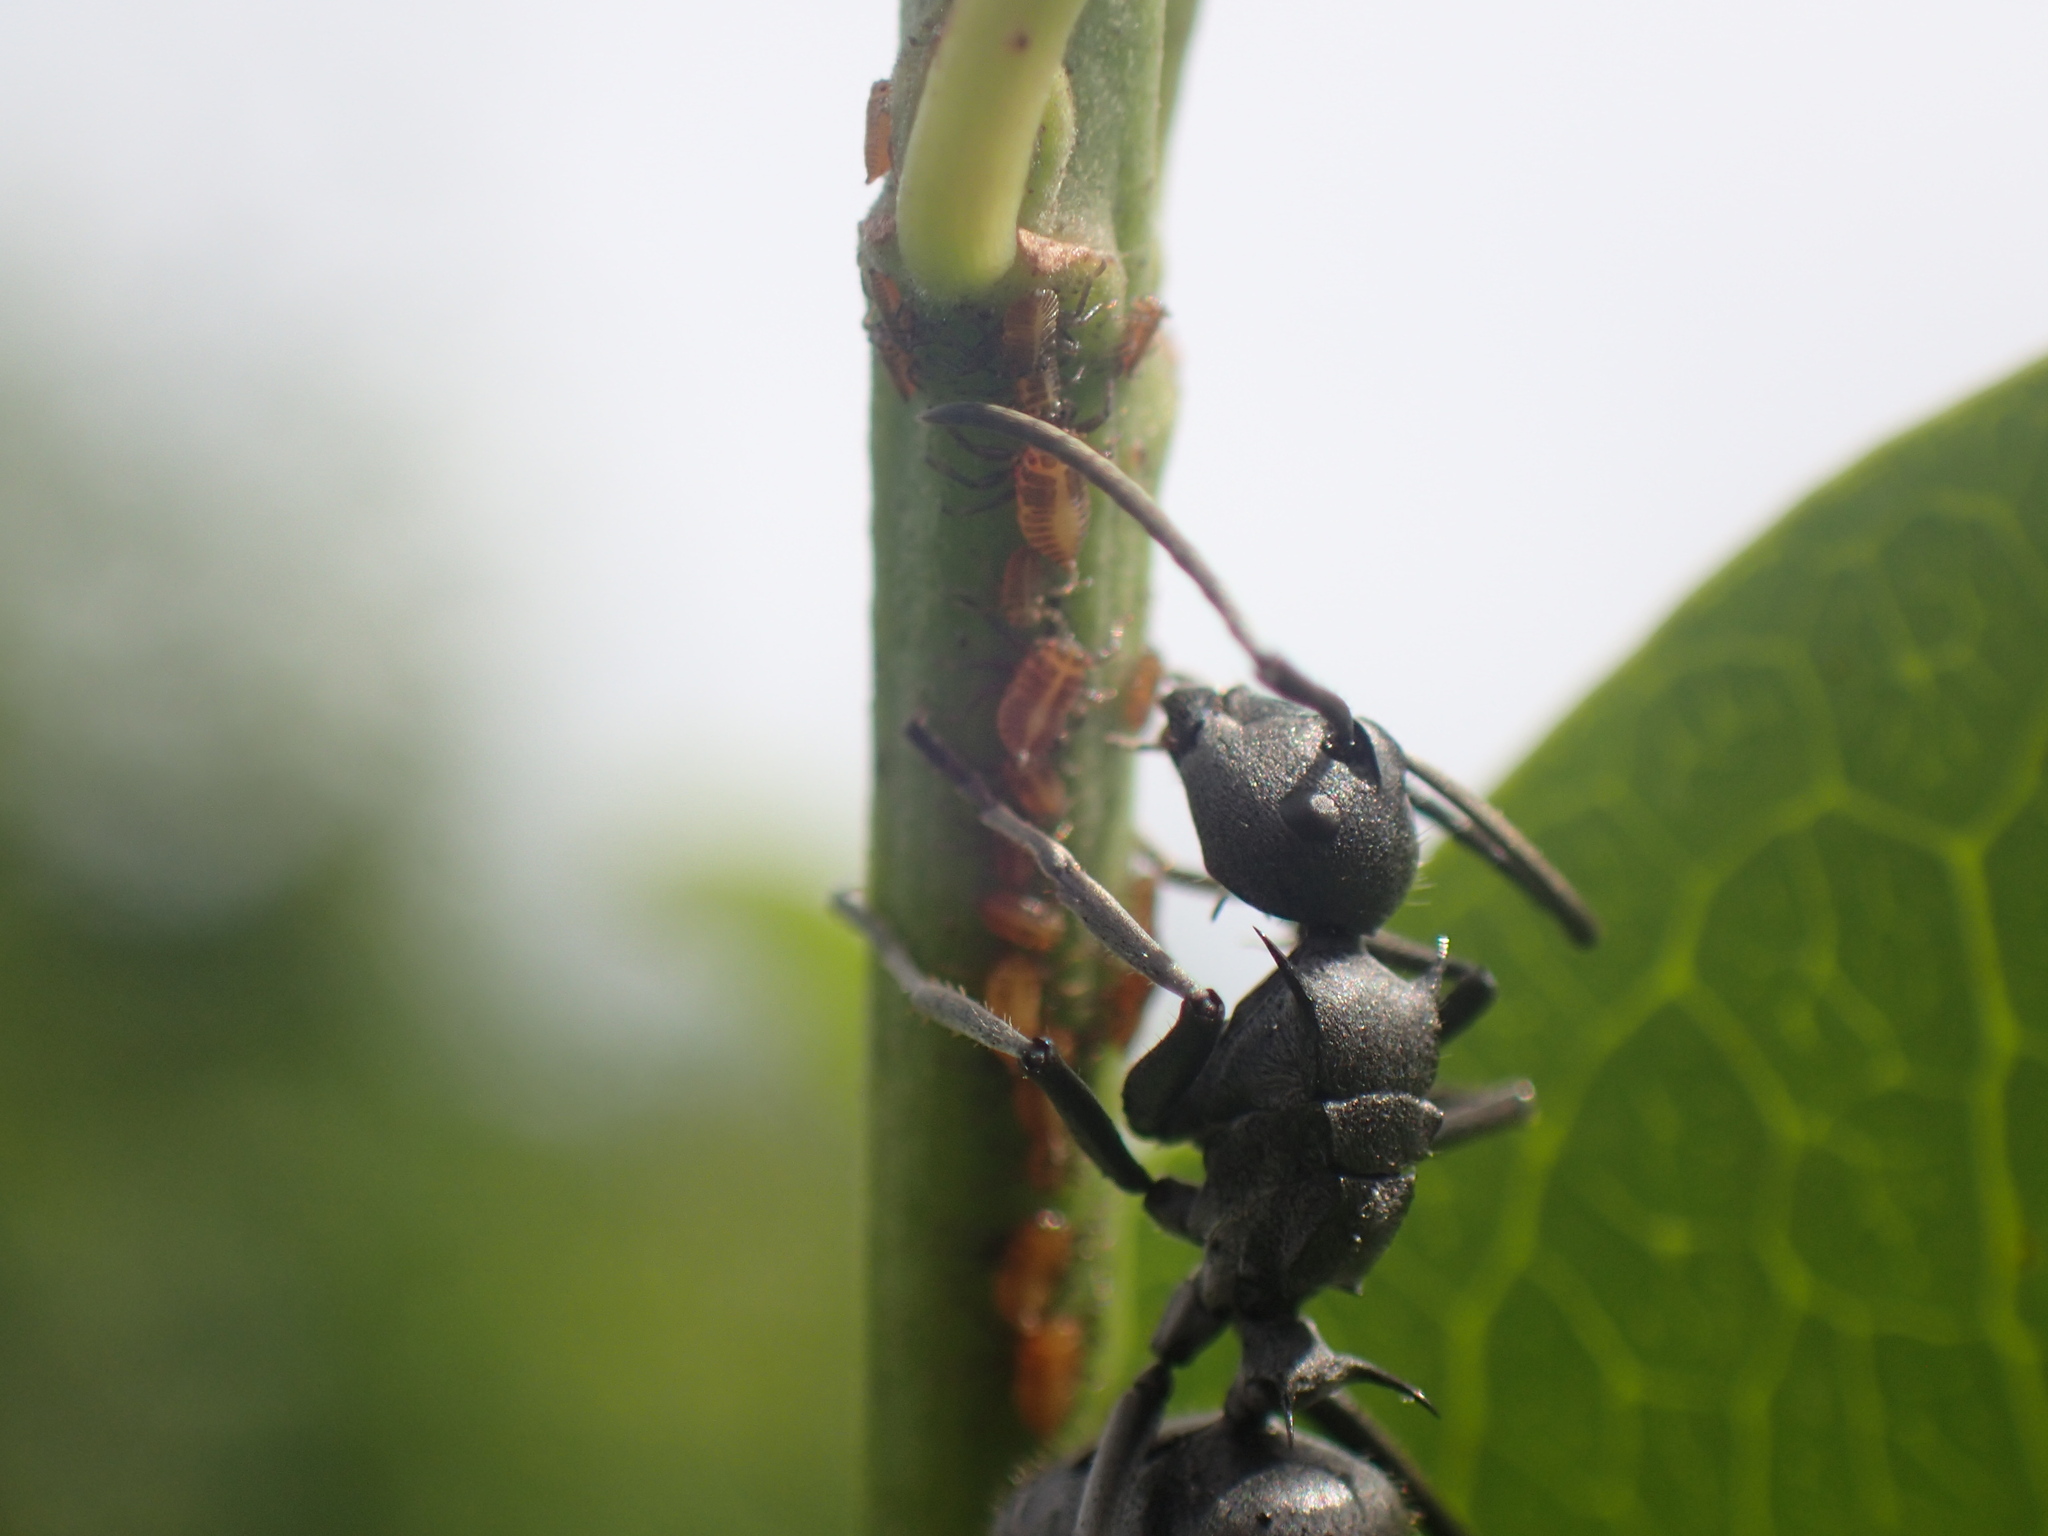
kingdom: Animalia
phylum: Arthropoda
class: Insecta
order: Hymenoptera
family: Formicidae
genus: Polyrhachis
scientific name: Polyrhachis schistacea
